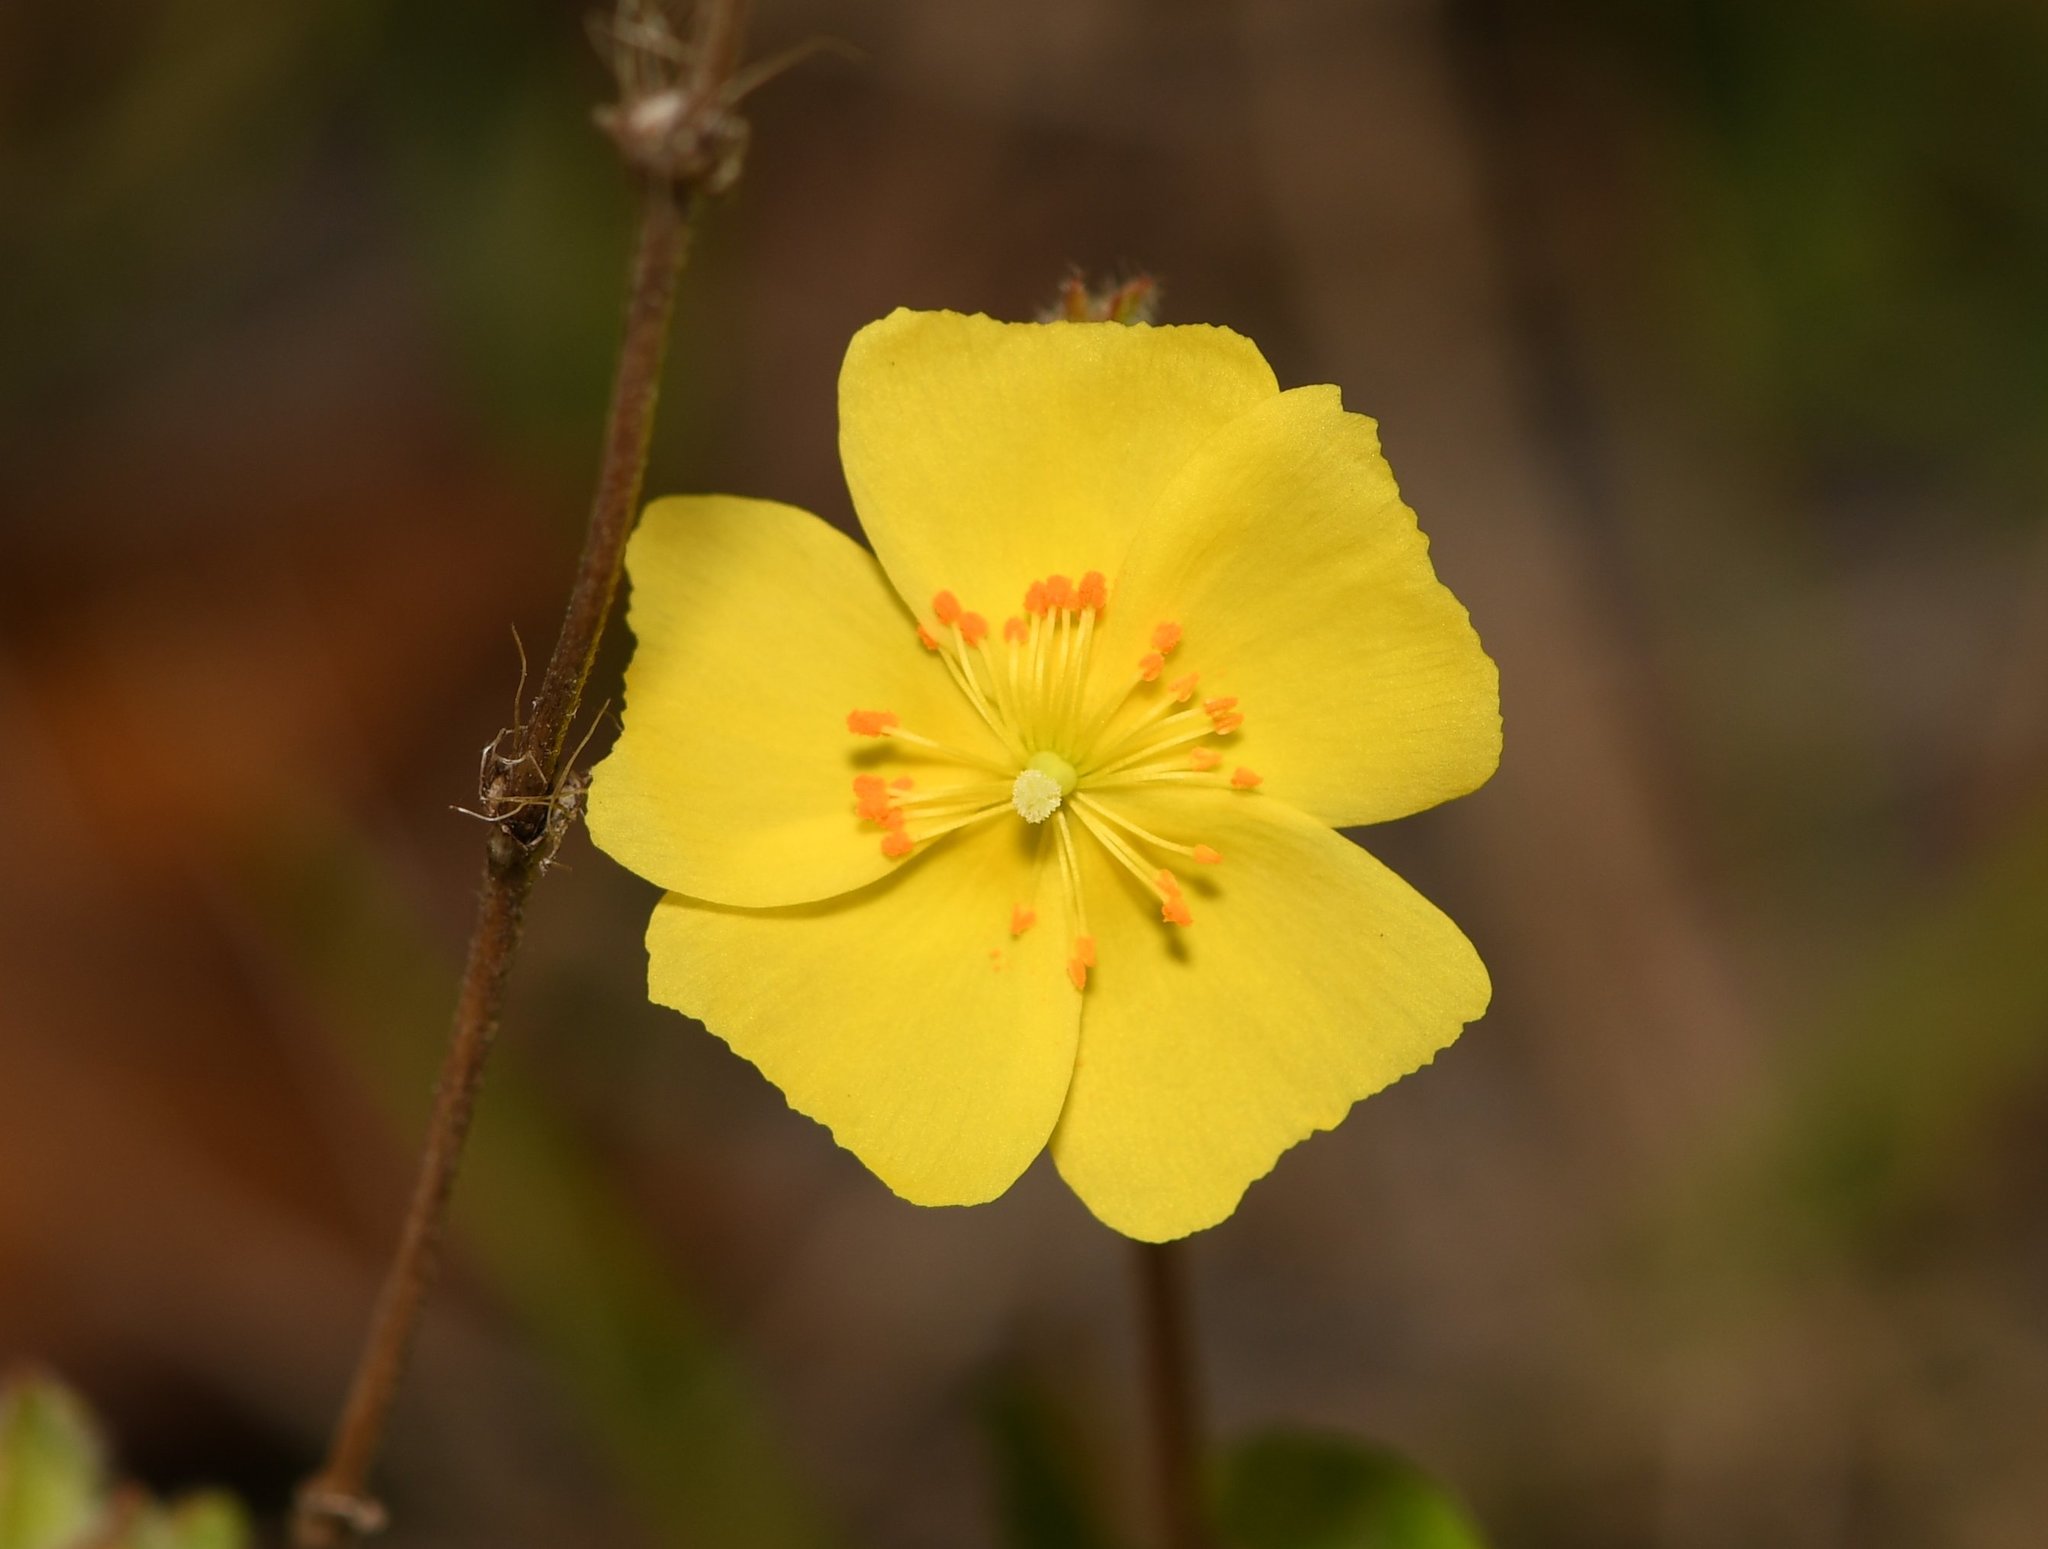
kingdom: Plantae
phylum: Tracheophyta
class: Magnoliopsida
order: Malvales
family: Cistaceae
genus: Crocanthemum
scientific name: Crocanthemum corymbosum
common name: Pinebarren sun-rose
